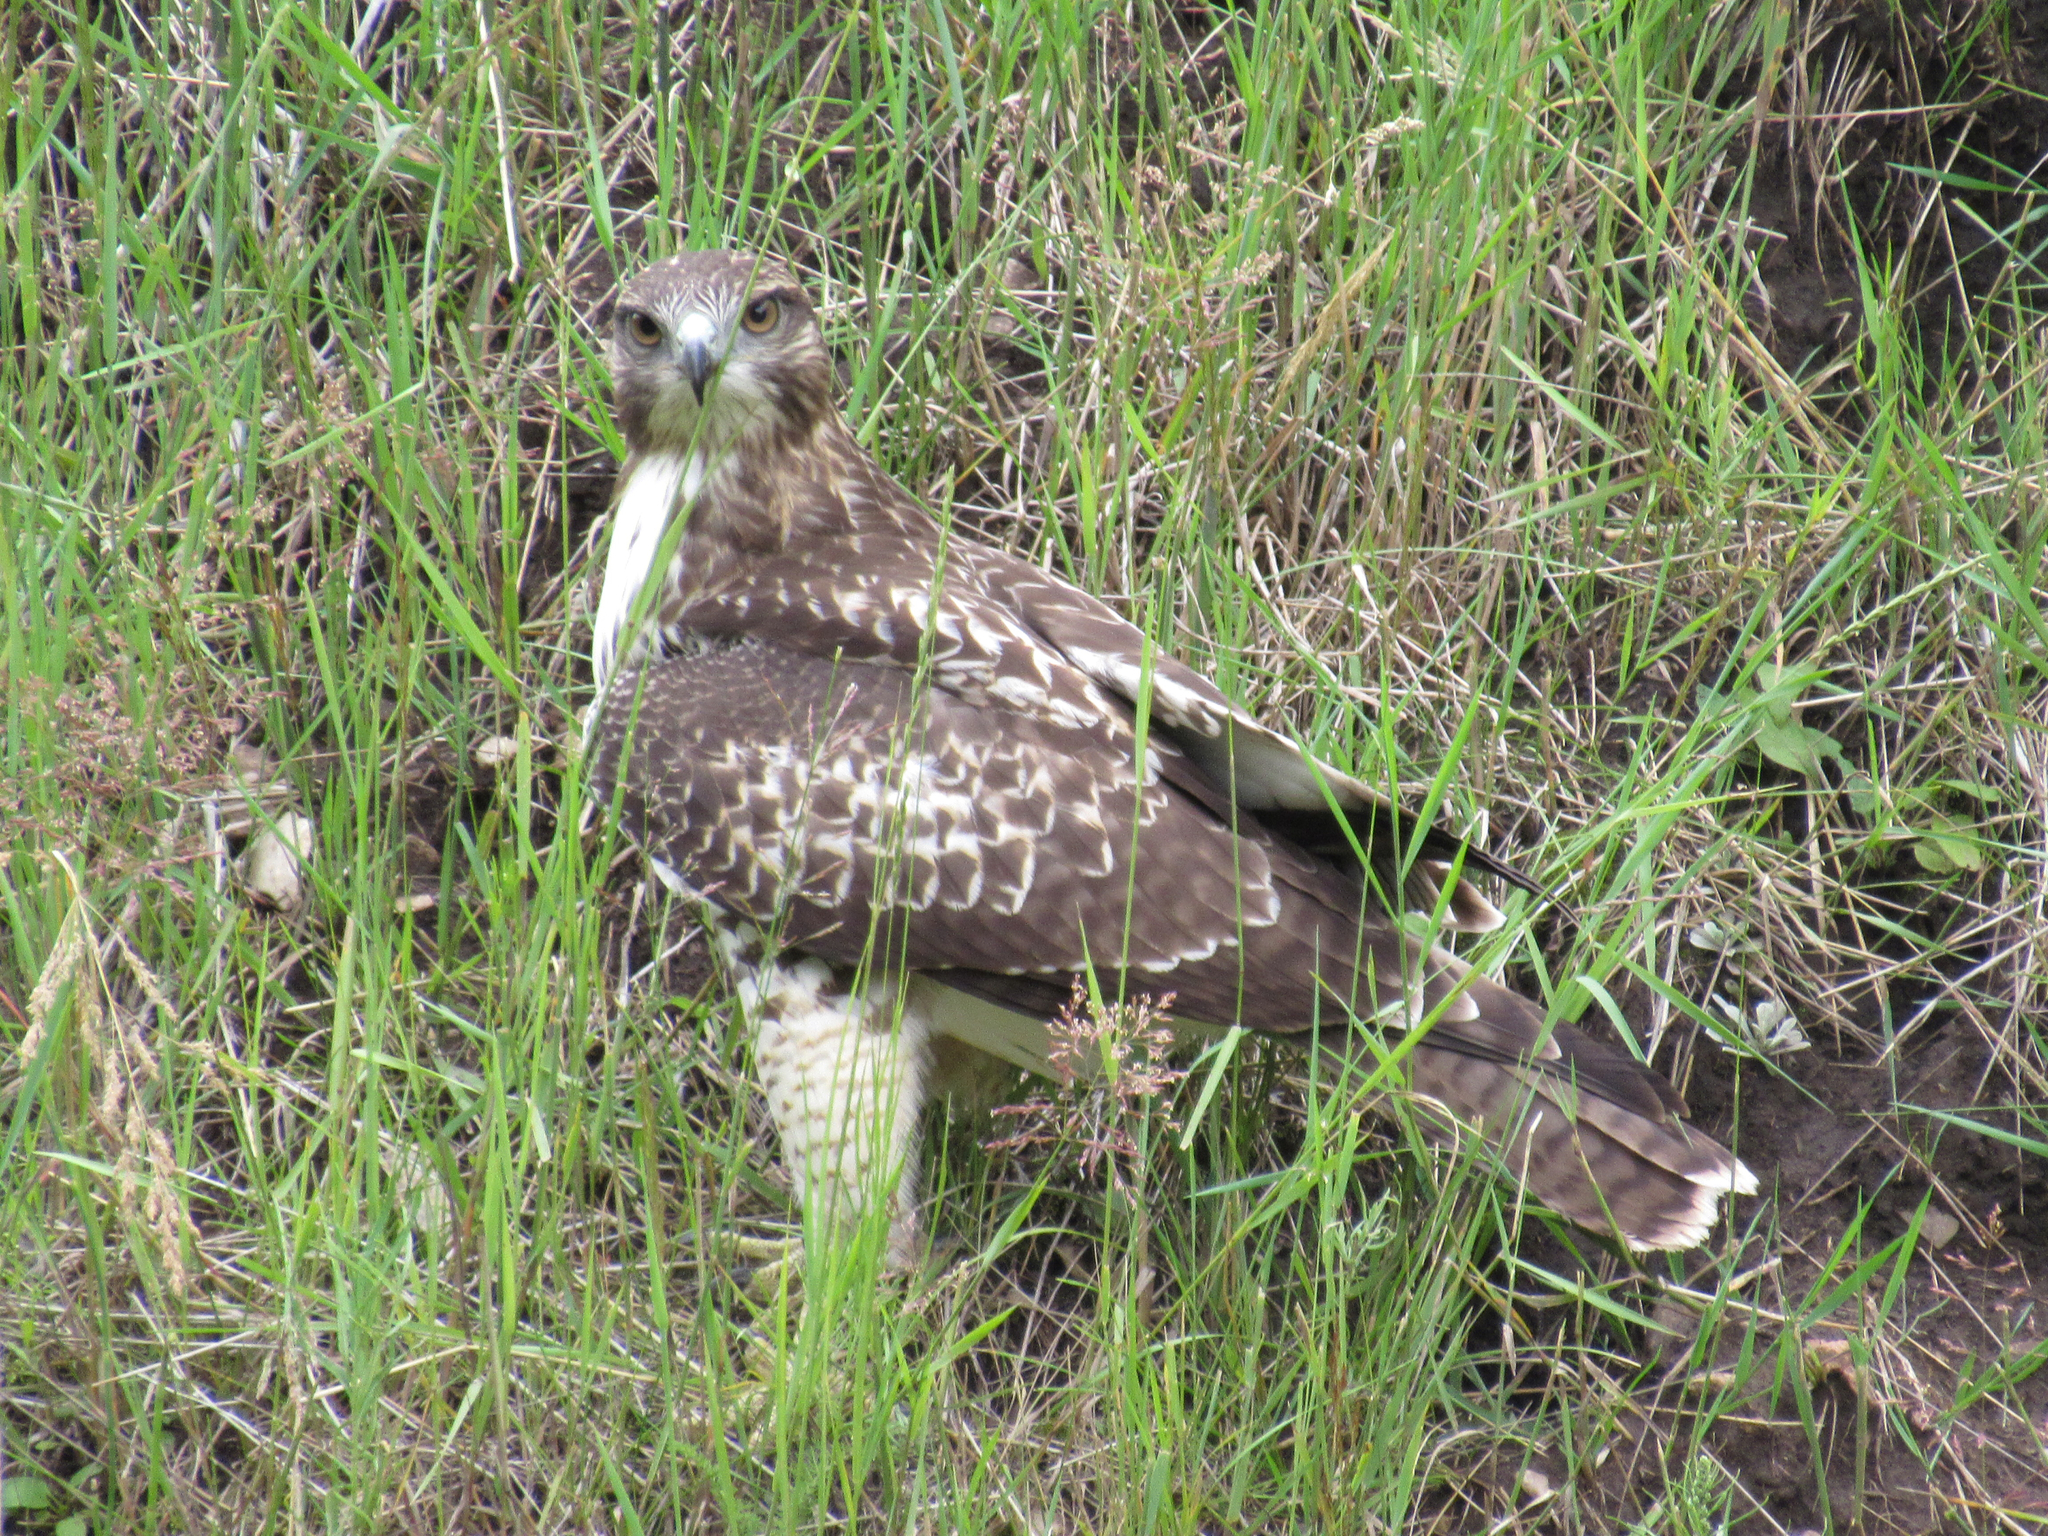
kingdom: Animalia
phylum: Chordata
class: Aves
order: Accipitriformes
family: Accipitridae
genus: Buteo
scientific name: Buteo jamaicensis
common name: Red-tailed hawk
